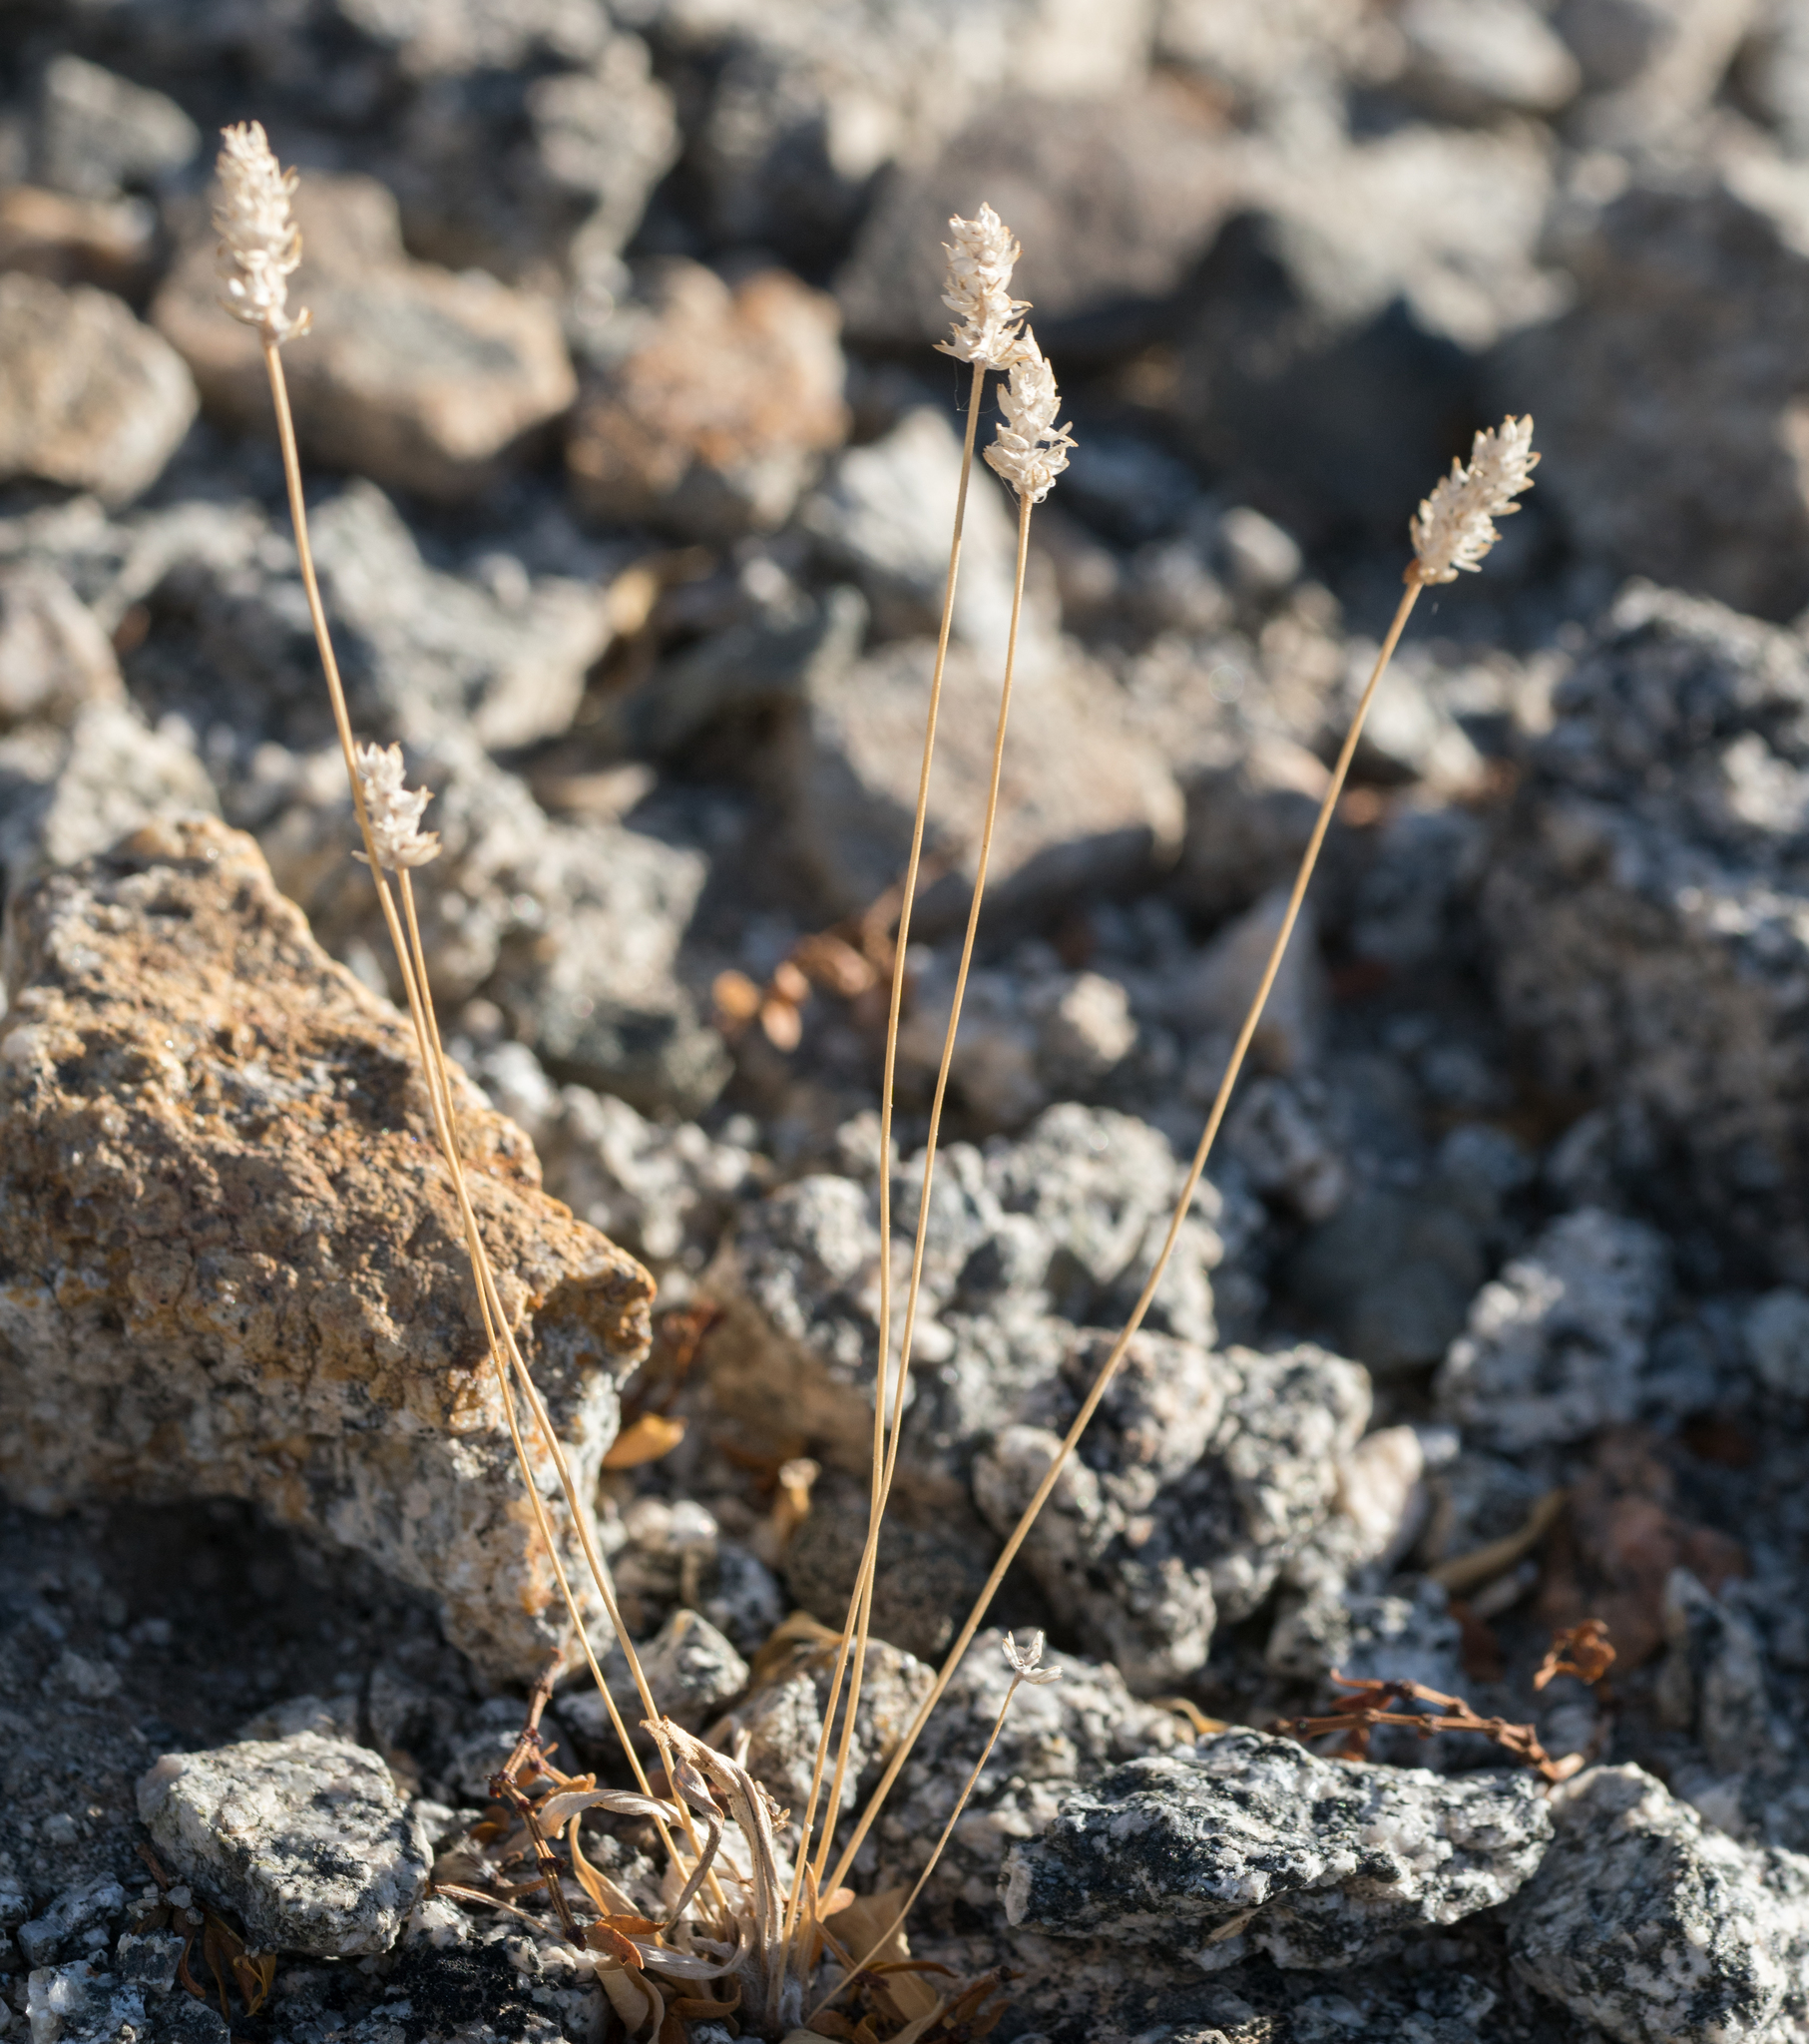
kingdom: Plantae
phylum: Tracheophyta
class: Magnoliopsida
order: Lamiales
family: Plantaginaceae
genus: Plantago
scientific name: Plantago ovata
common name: Blond plantain
